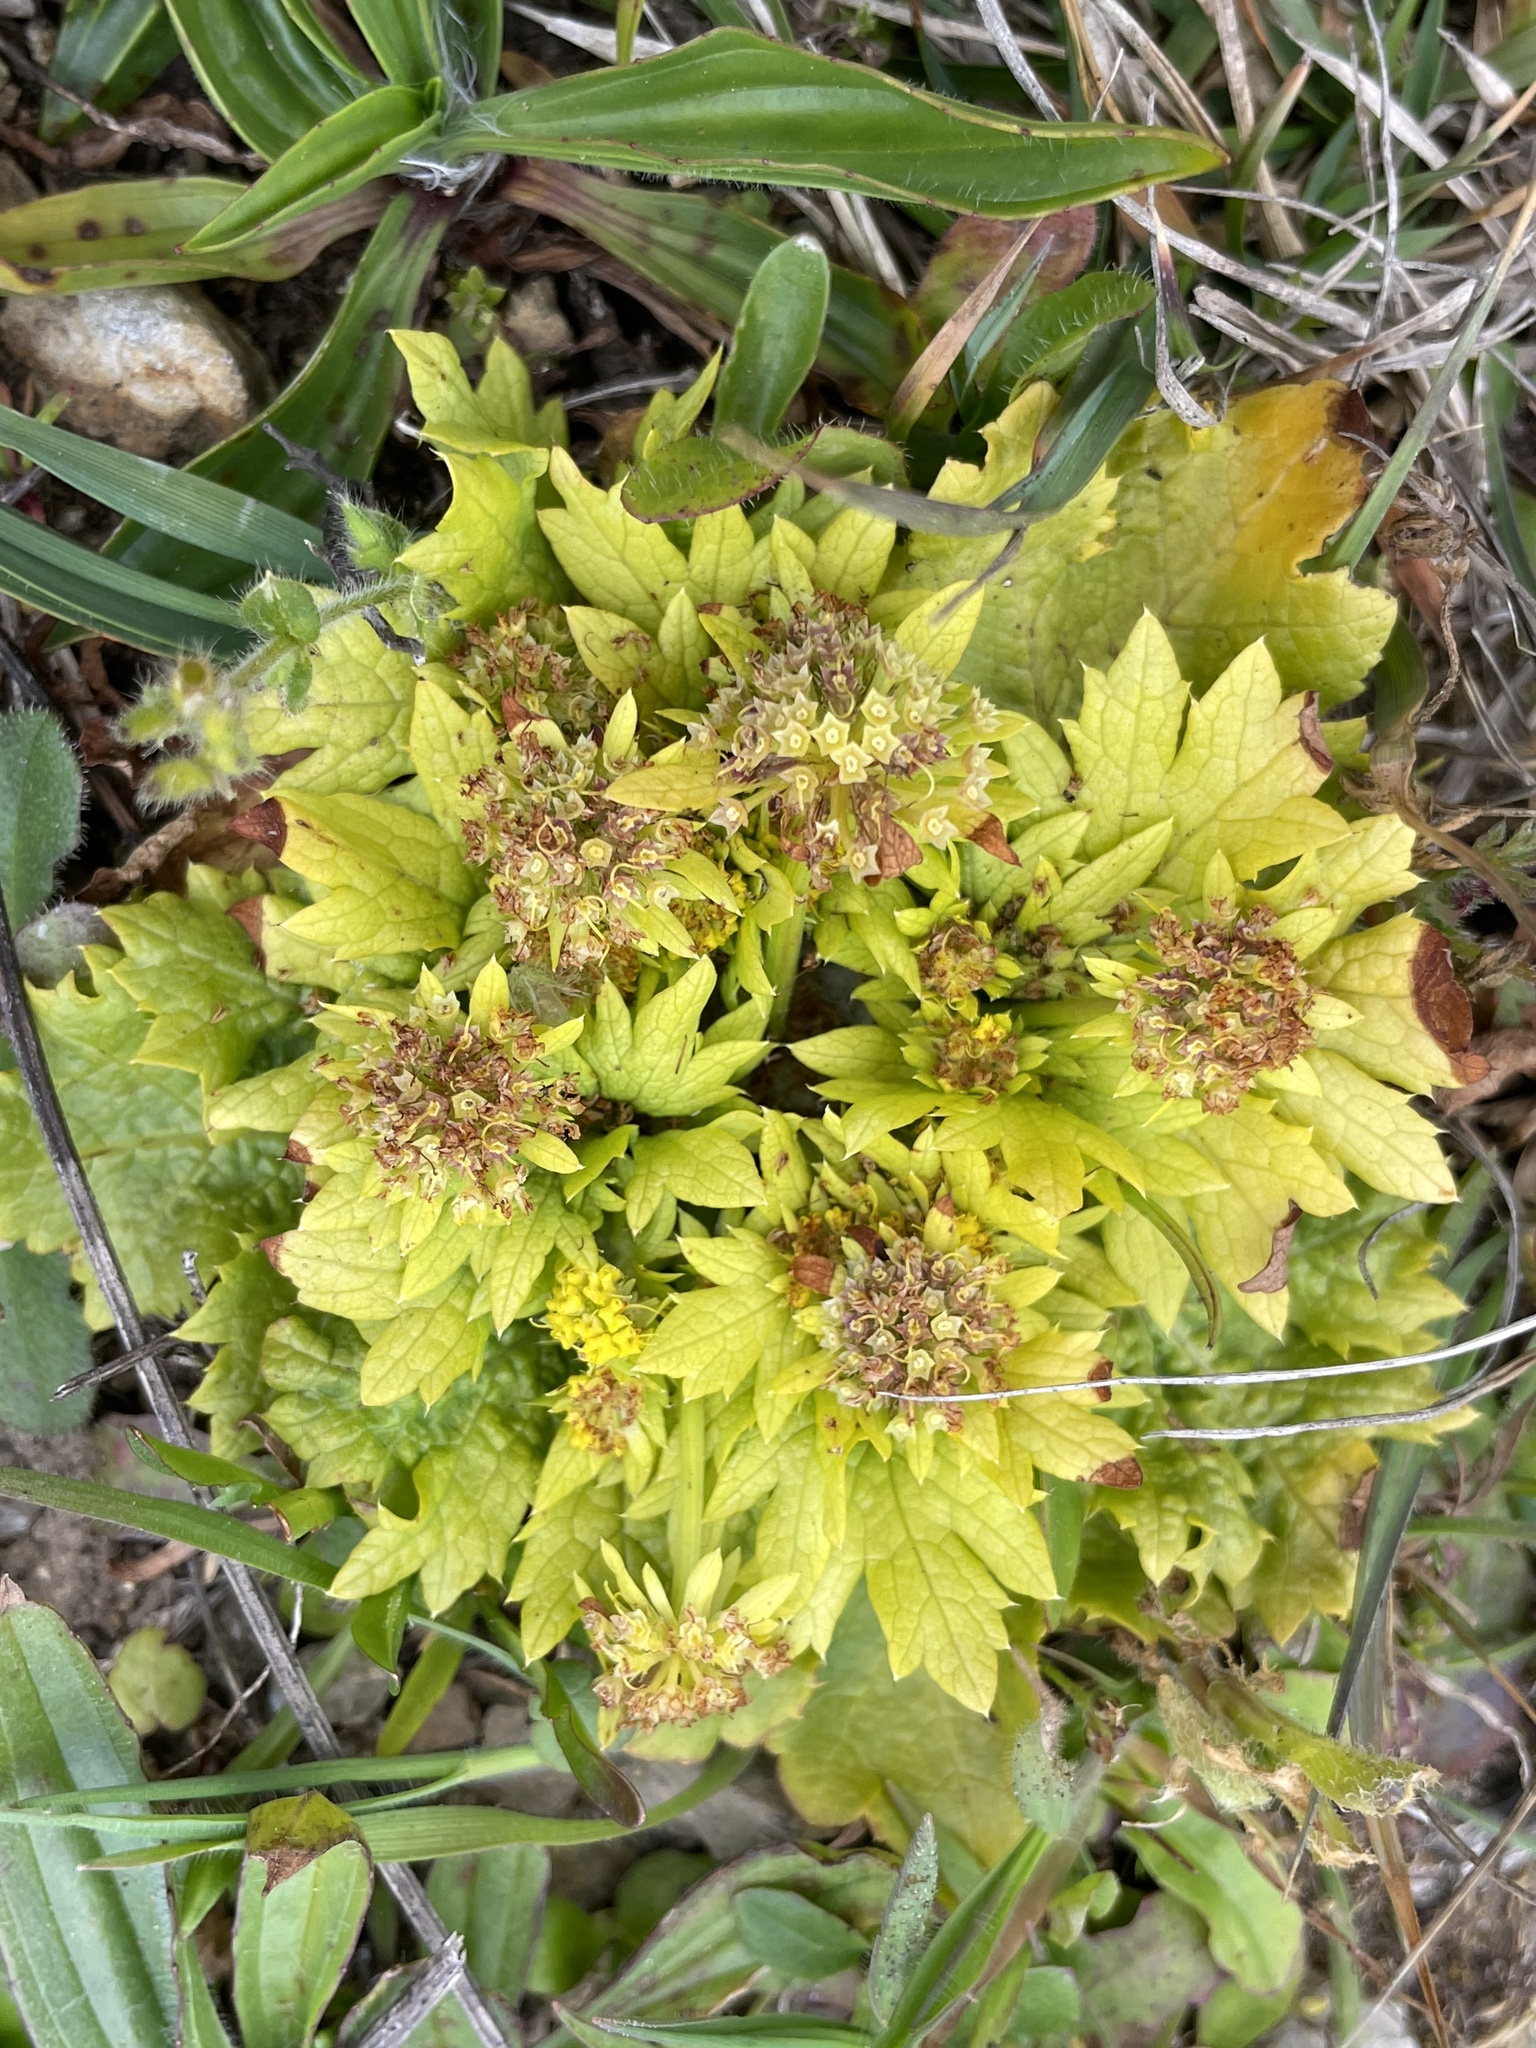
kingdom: Plantae
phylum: Tracheophyta
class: Magnoliopsida
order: Apiales
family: Apiaceae
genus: Sanicula
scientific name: Sanicula arctopoides
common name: Footsteps-of-spring
